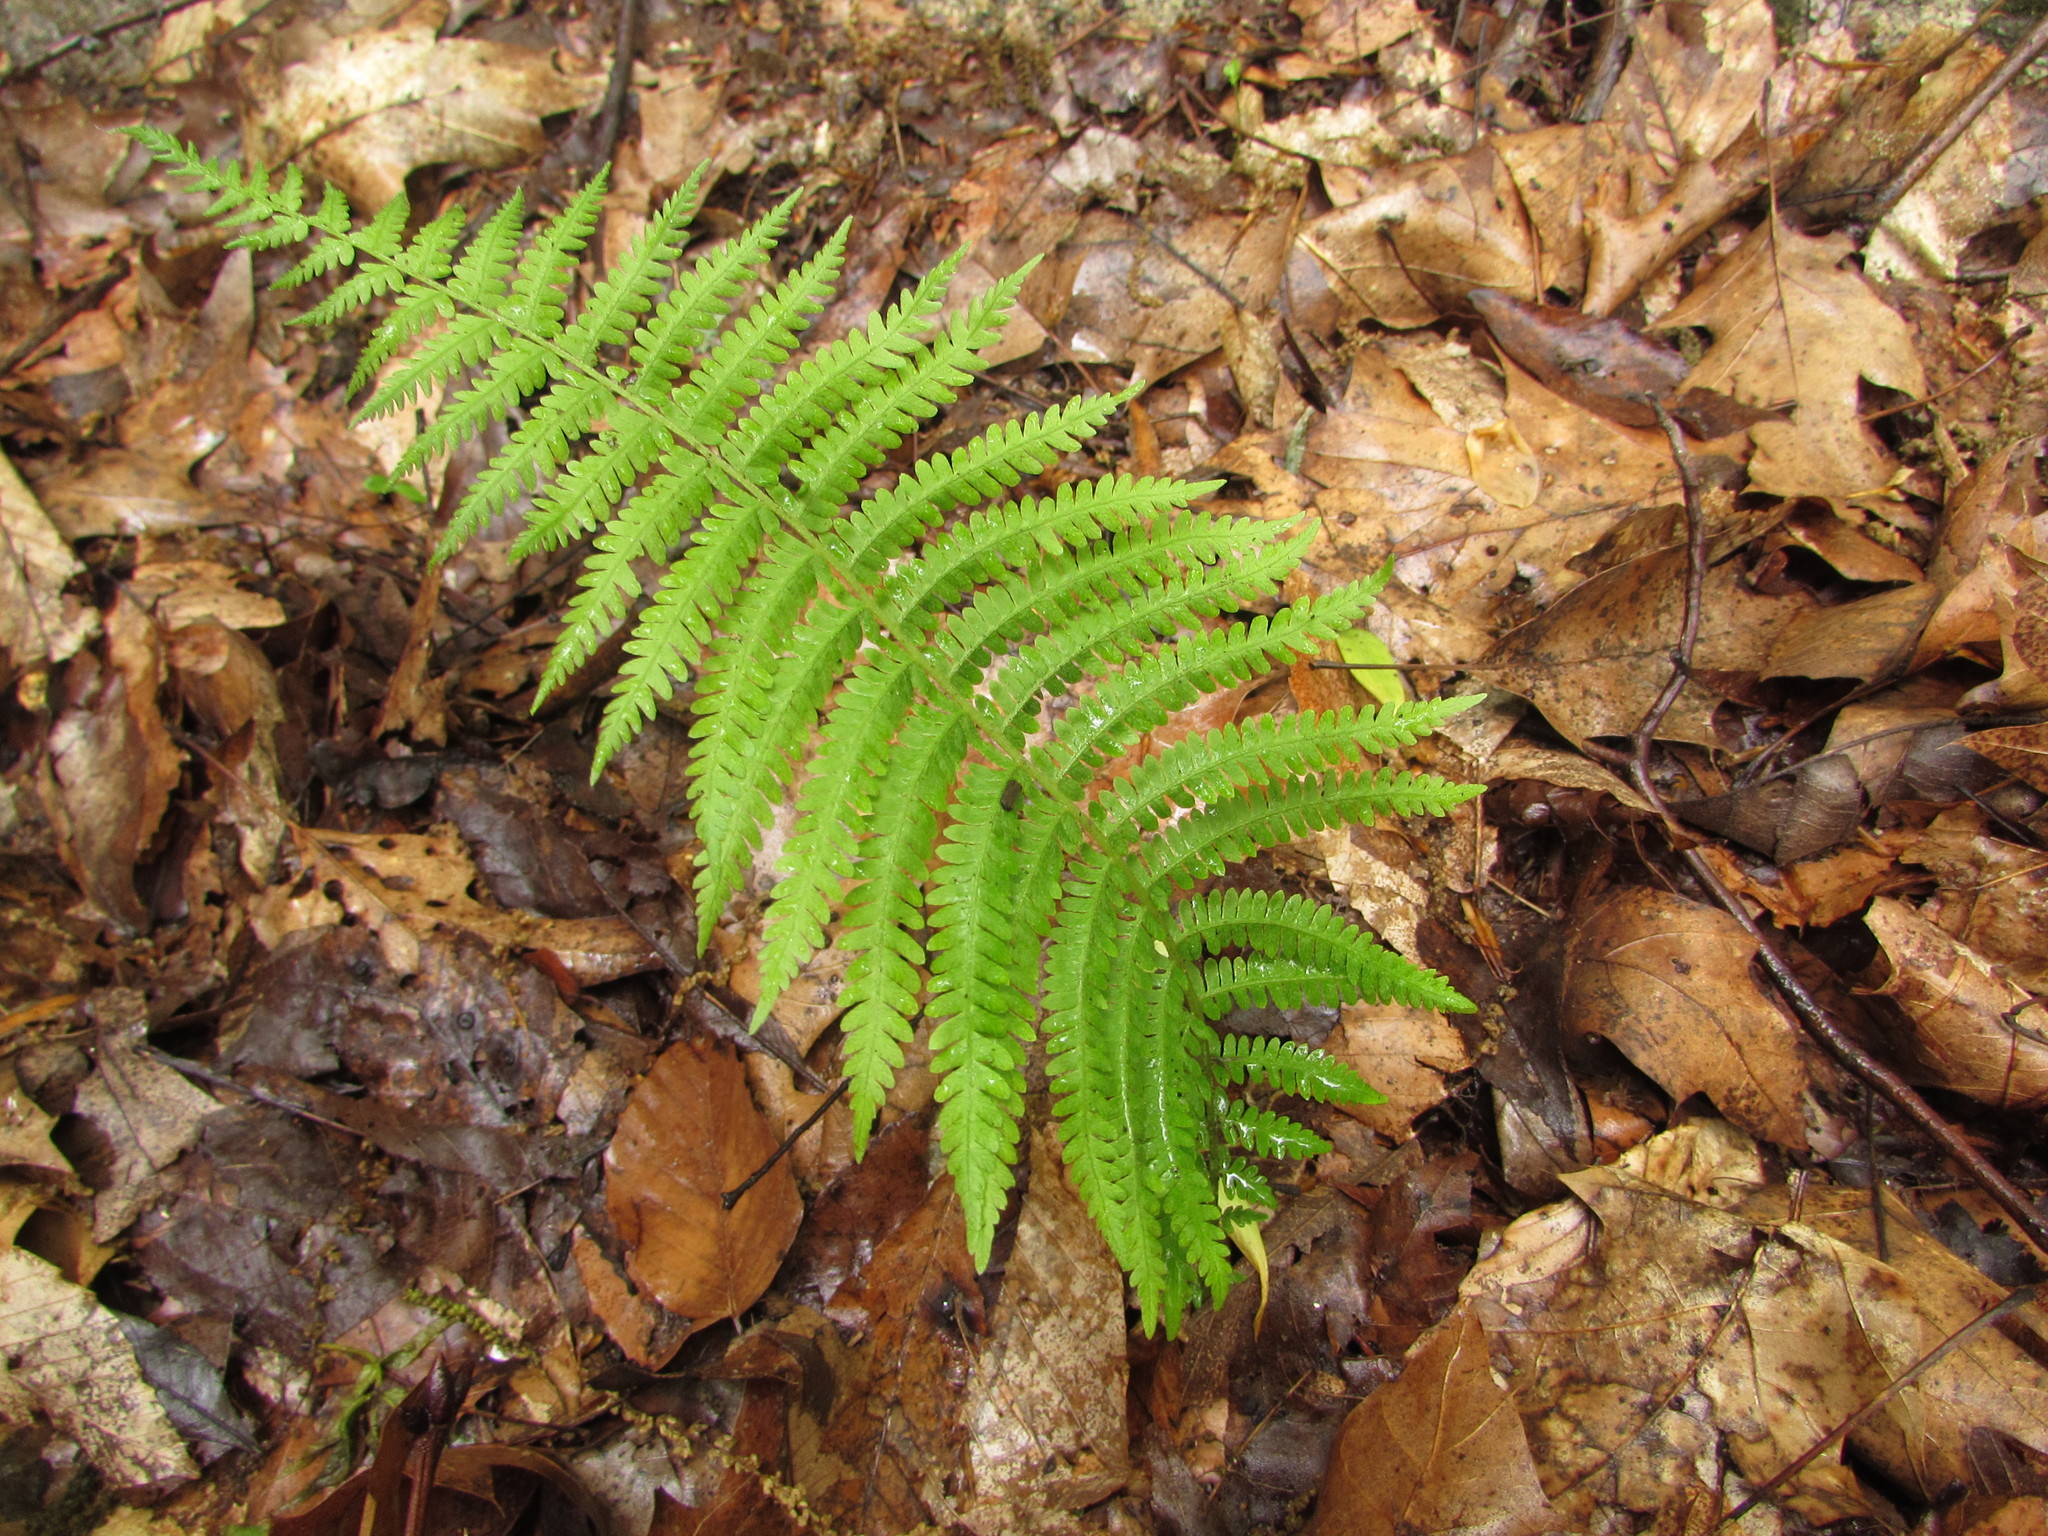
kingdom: Plantae
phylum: Tracheophyta
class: Polypodiopsida
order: Polypodiales
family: Thelypteridaceae
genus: Amauropelta
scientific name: Amauropelta noveboracensis
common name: New york fern
